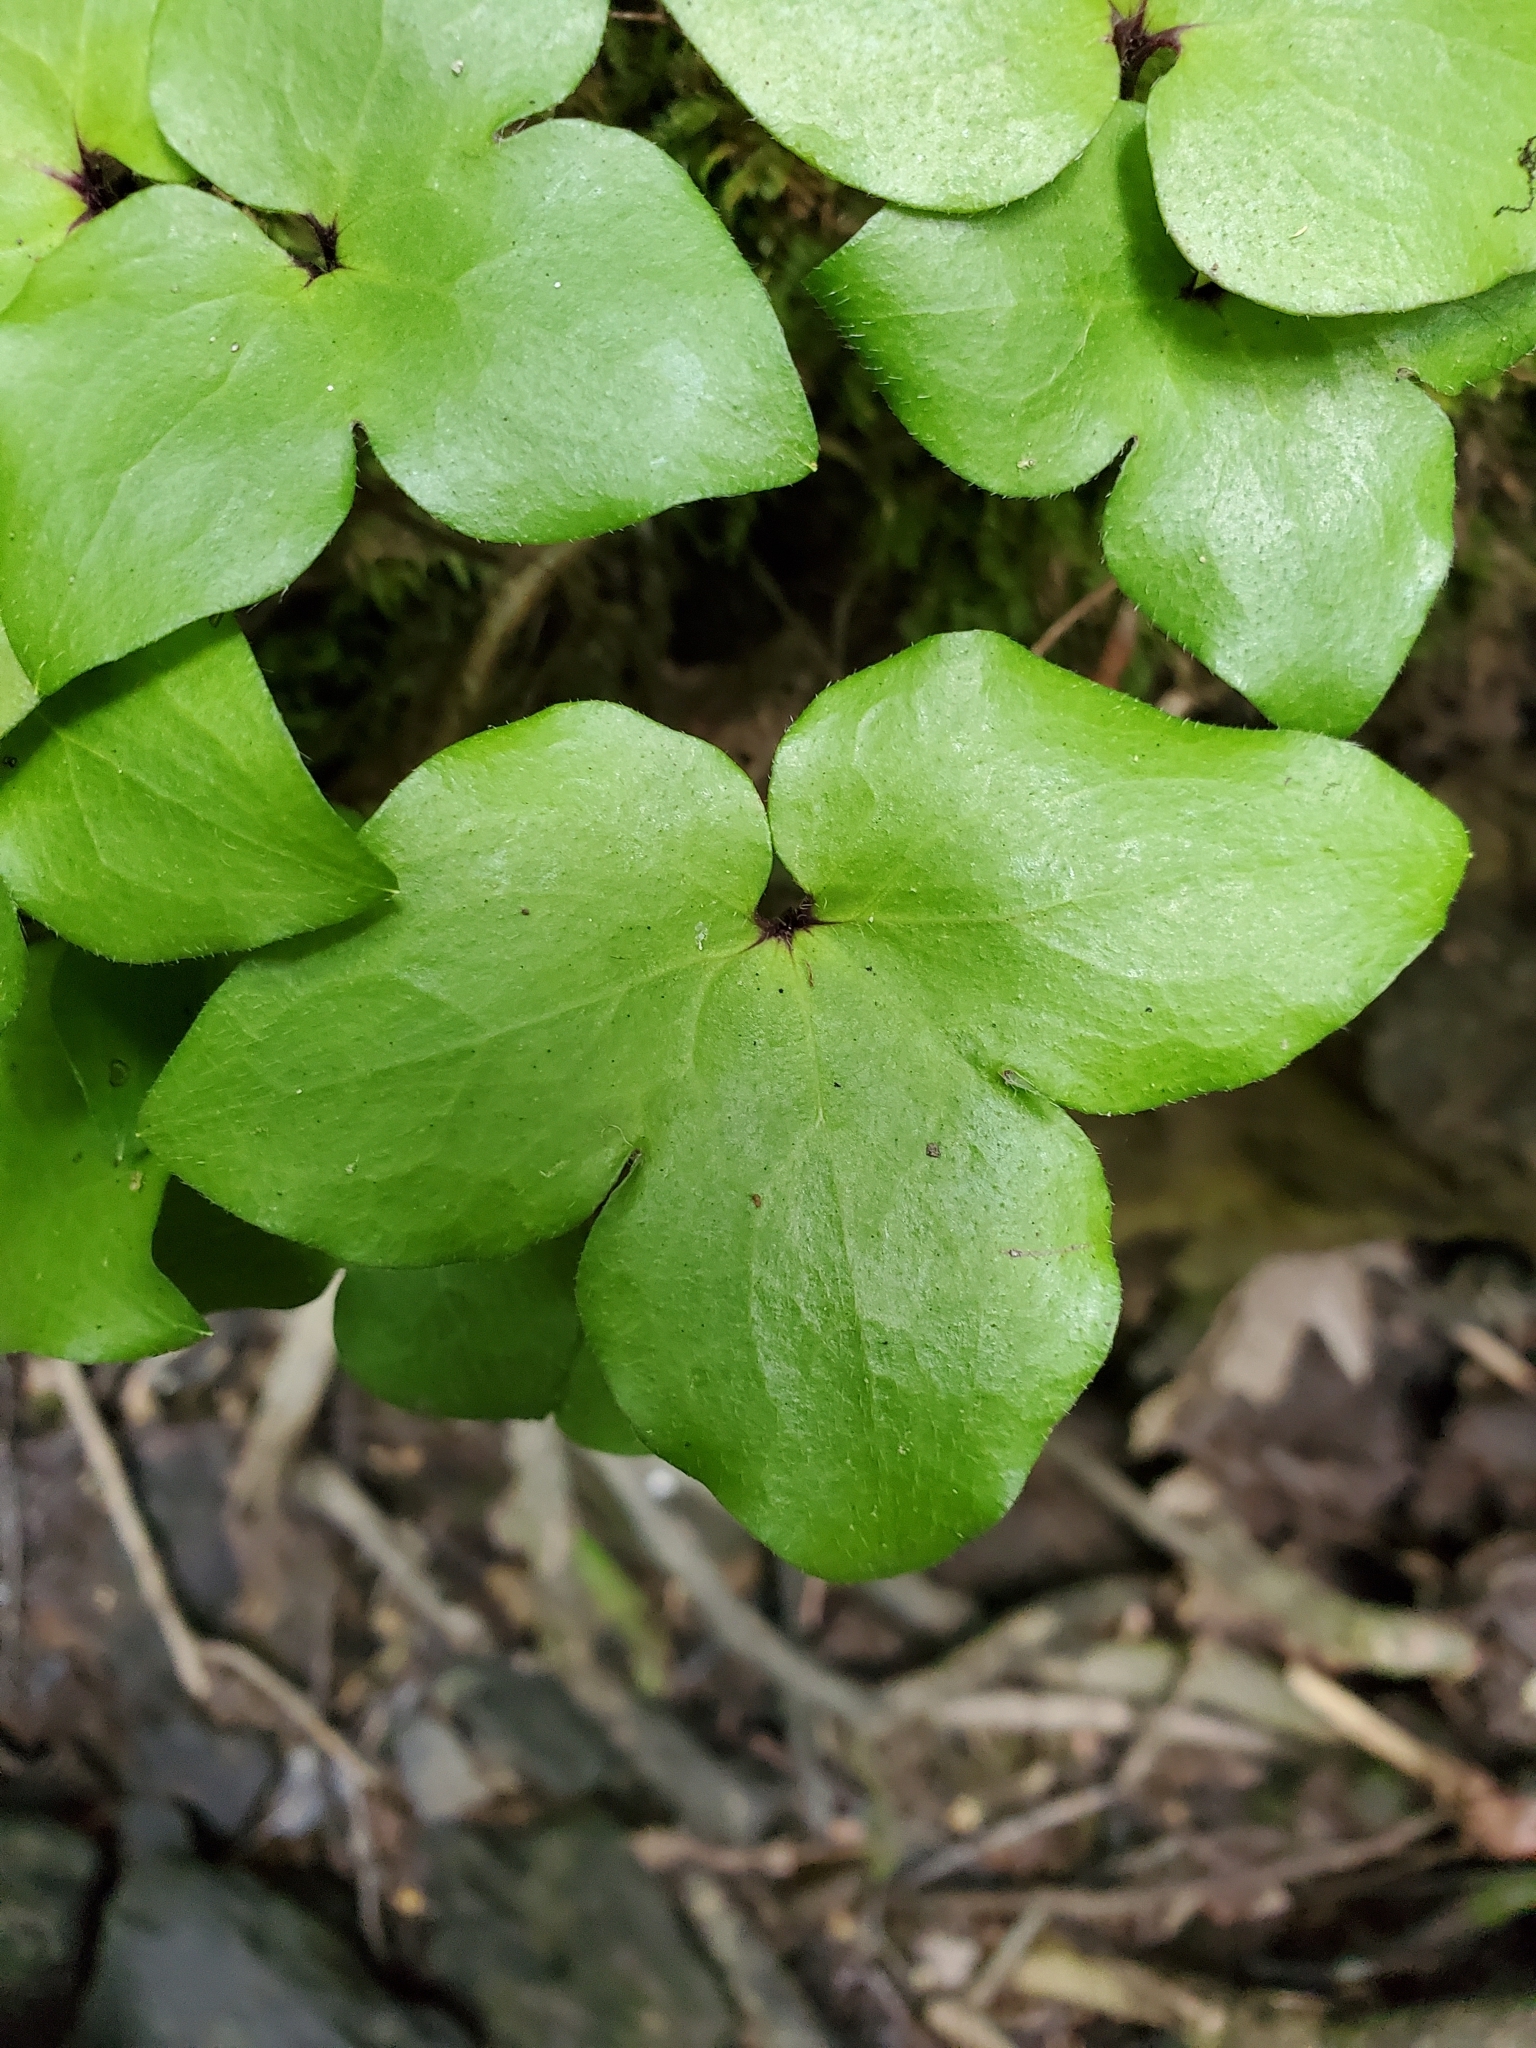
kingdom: Plantae
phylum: Tracheophyta
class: Magnoliopsida
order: Ranunculales
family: Ranunculaceae
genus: Hepatica
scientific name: Hepatica acutiloba
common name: Sharp-lobed hepatica
